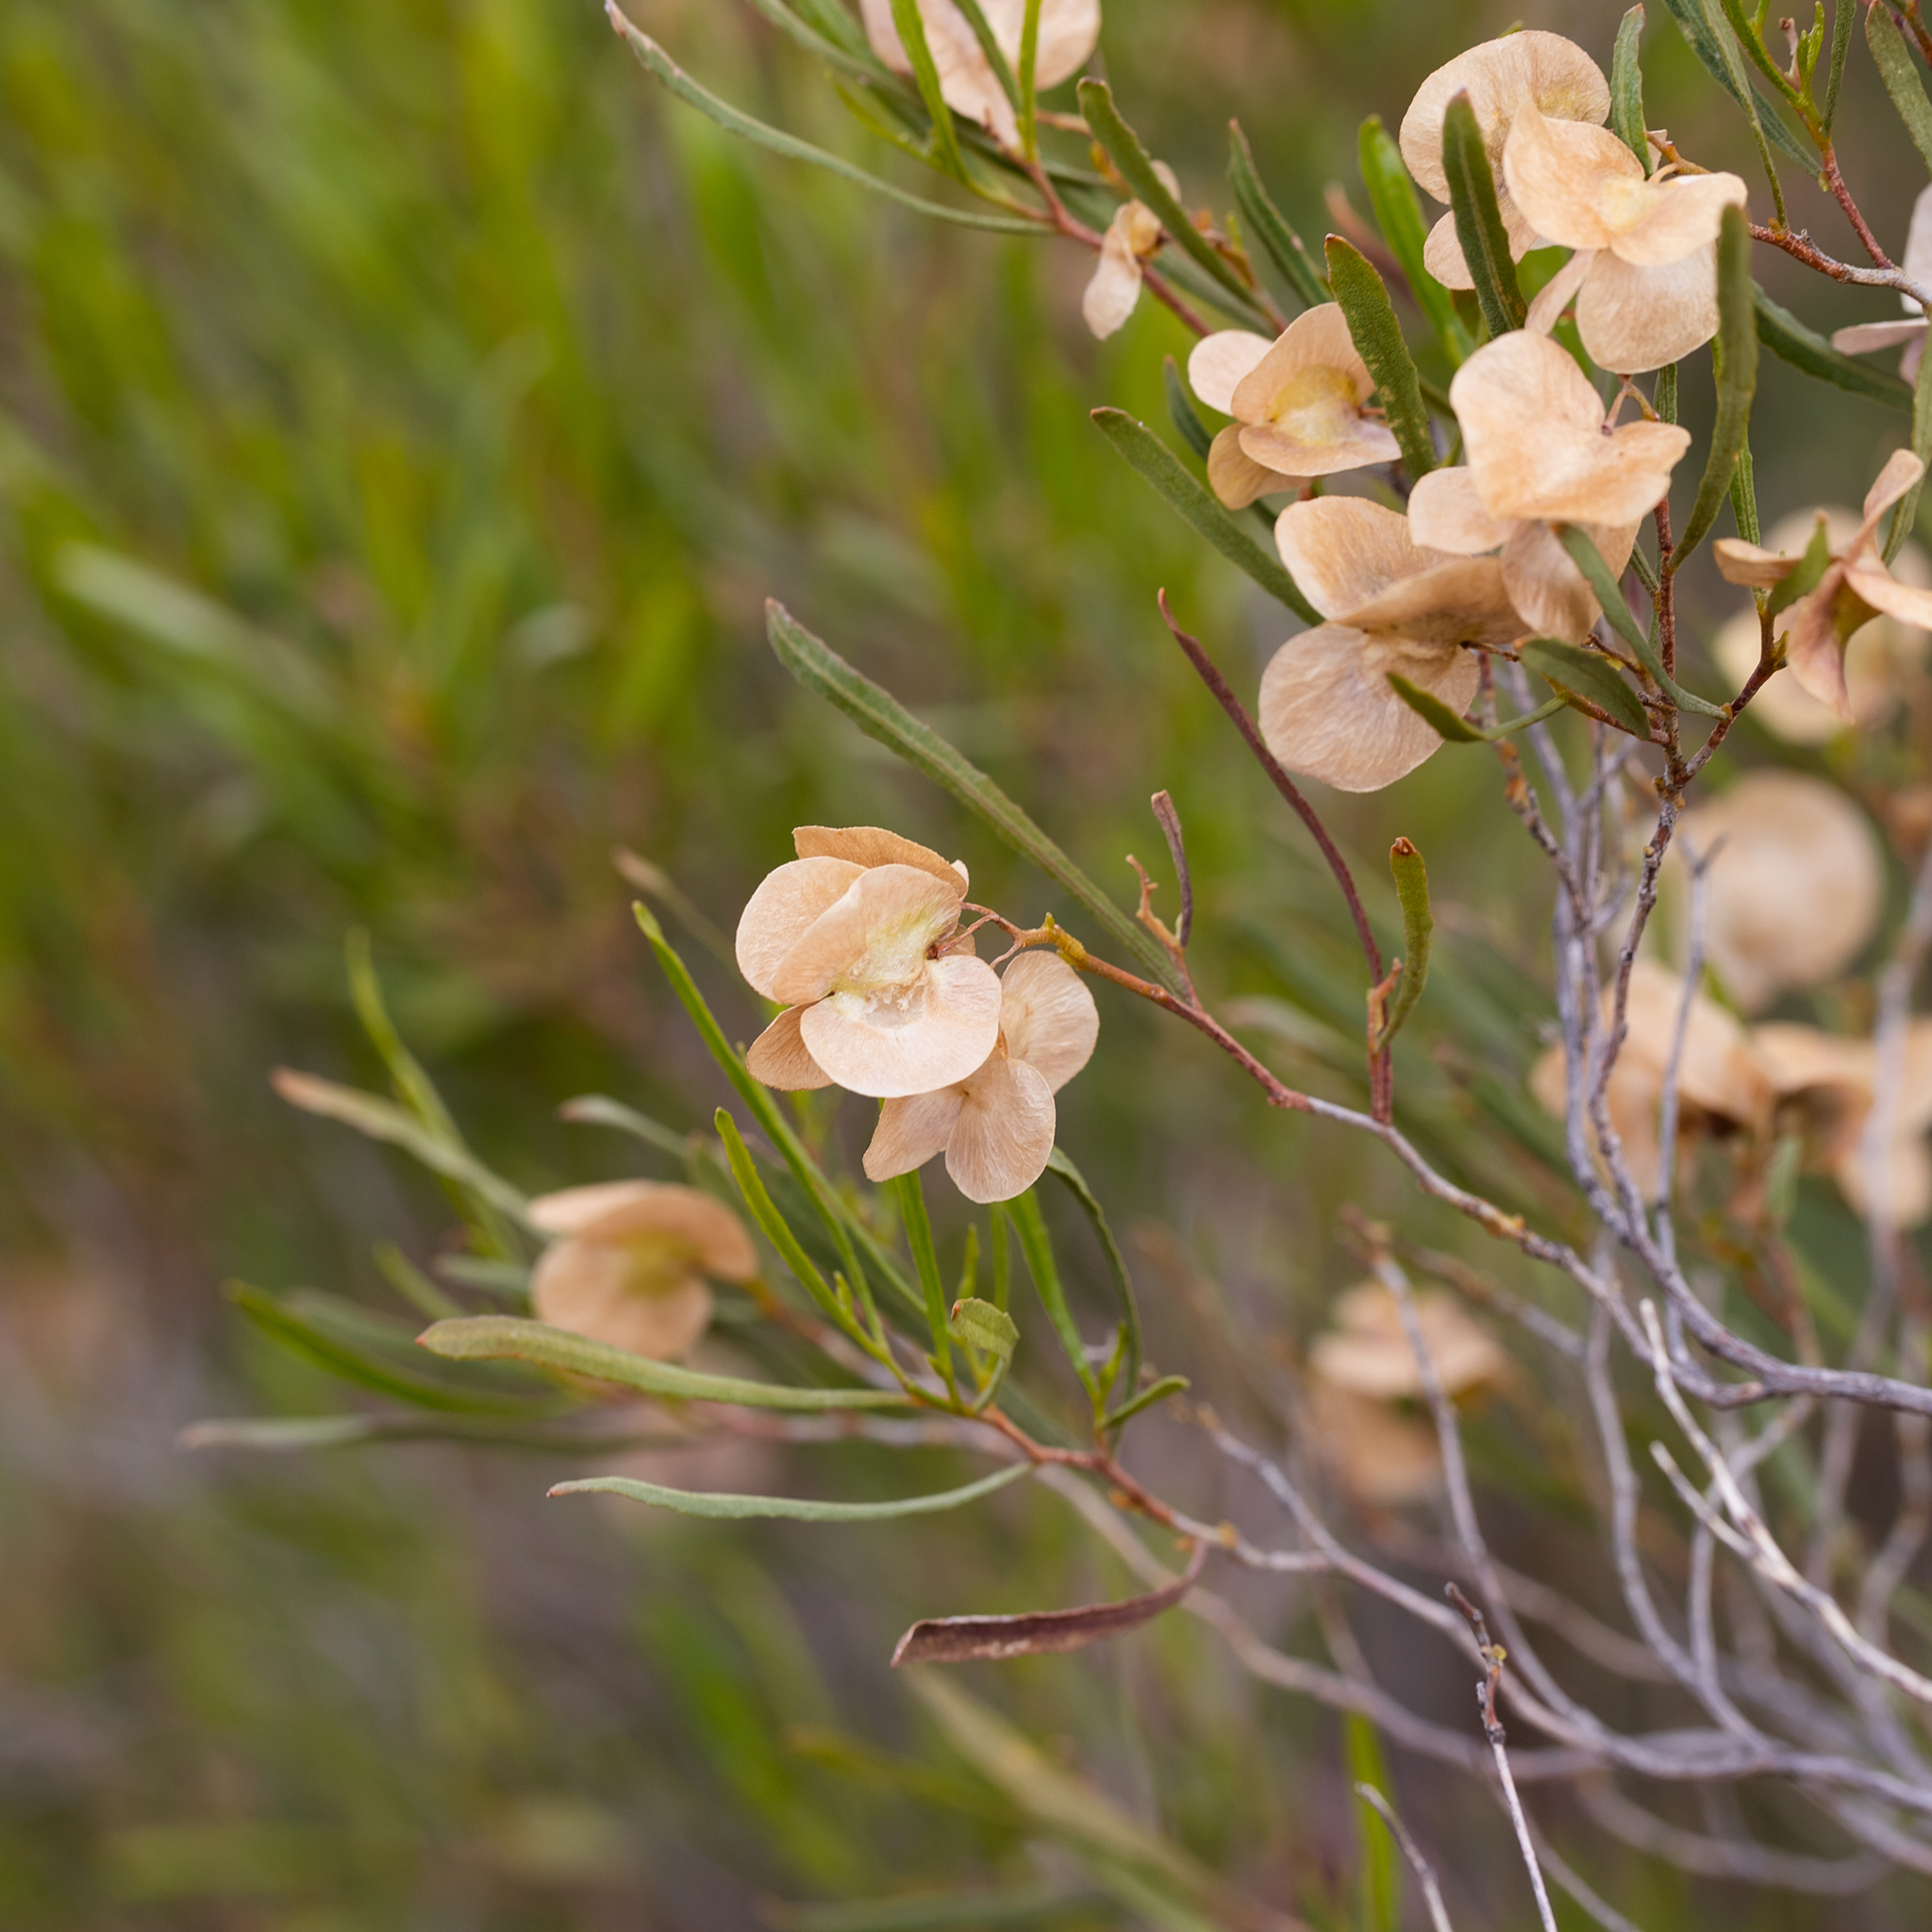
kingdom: Plantae
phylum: Tracheophyta
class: Magnoliopsida
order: Sapindales
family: Sapindaceae
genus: Dodonaea
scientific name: Dodonaea viscosa
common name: Hopbush
